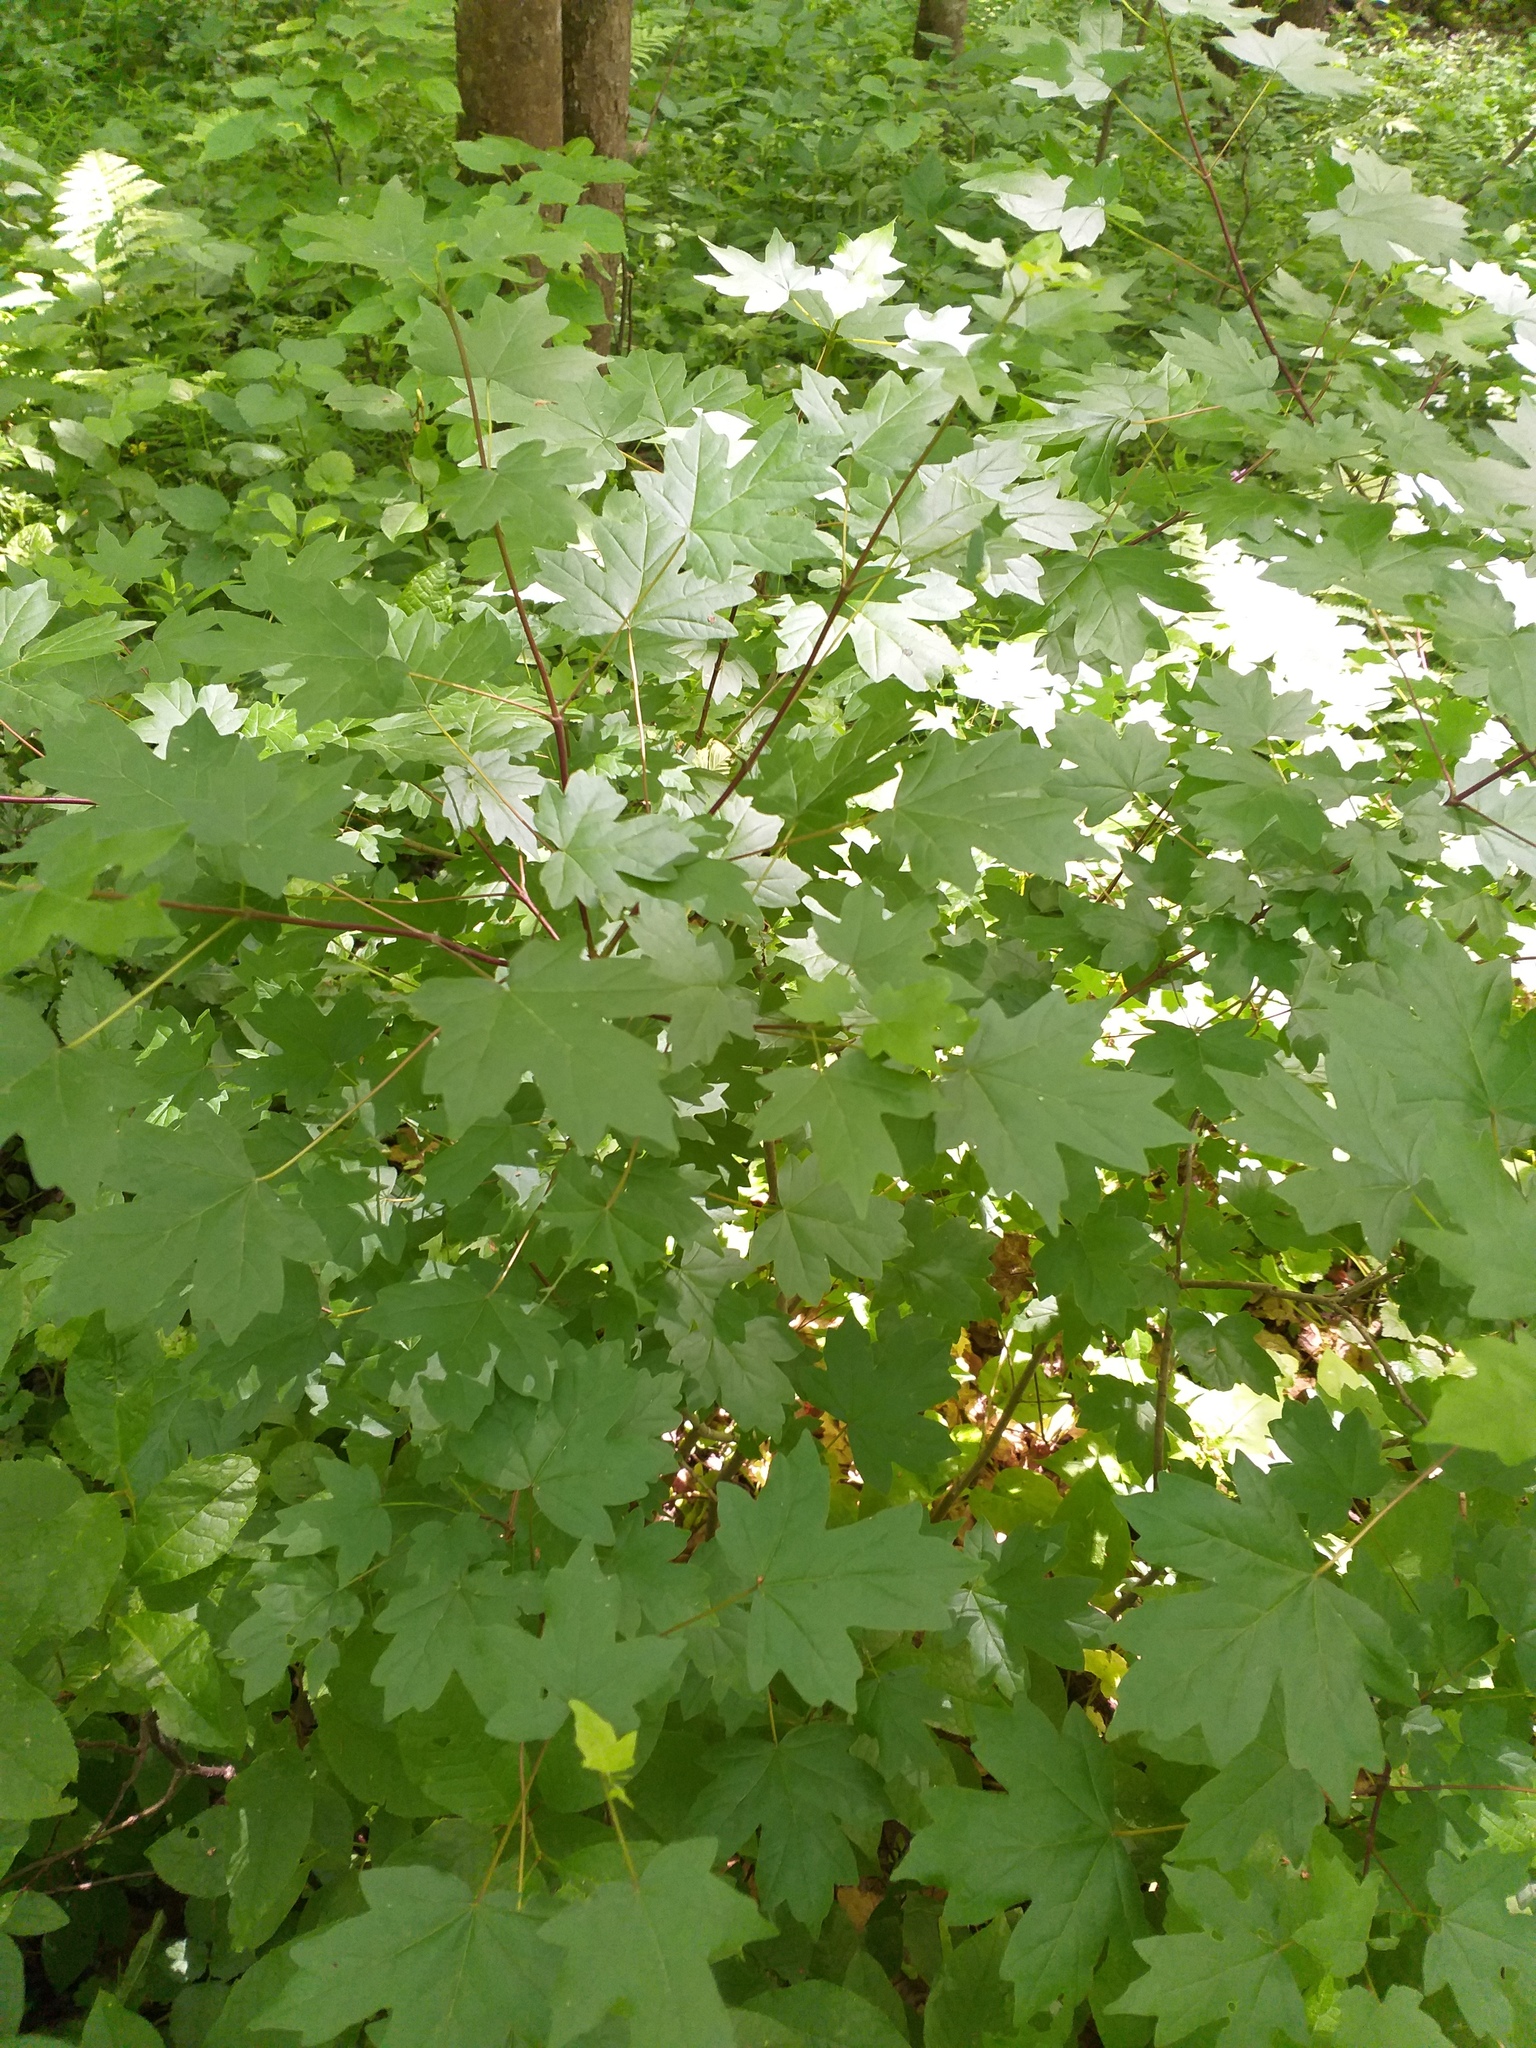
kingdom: Plantae
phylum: Tracheophyta
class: Magnoliopsida
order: Sapindales
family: Sapindaceae
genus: Acer
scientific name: Acer campestre
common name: Field maple
